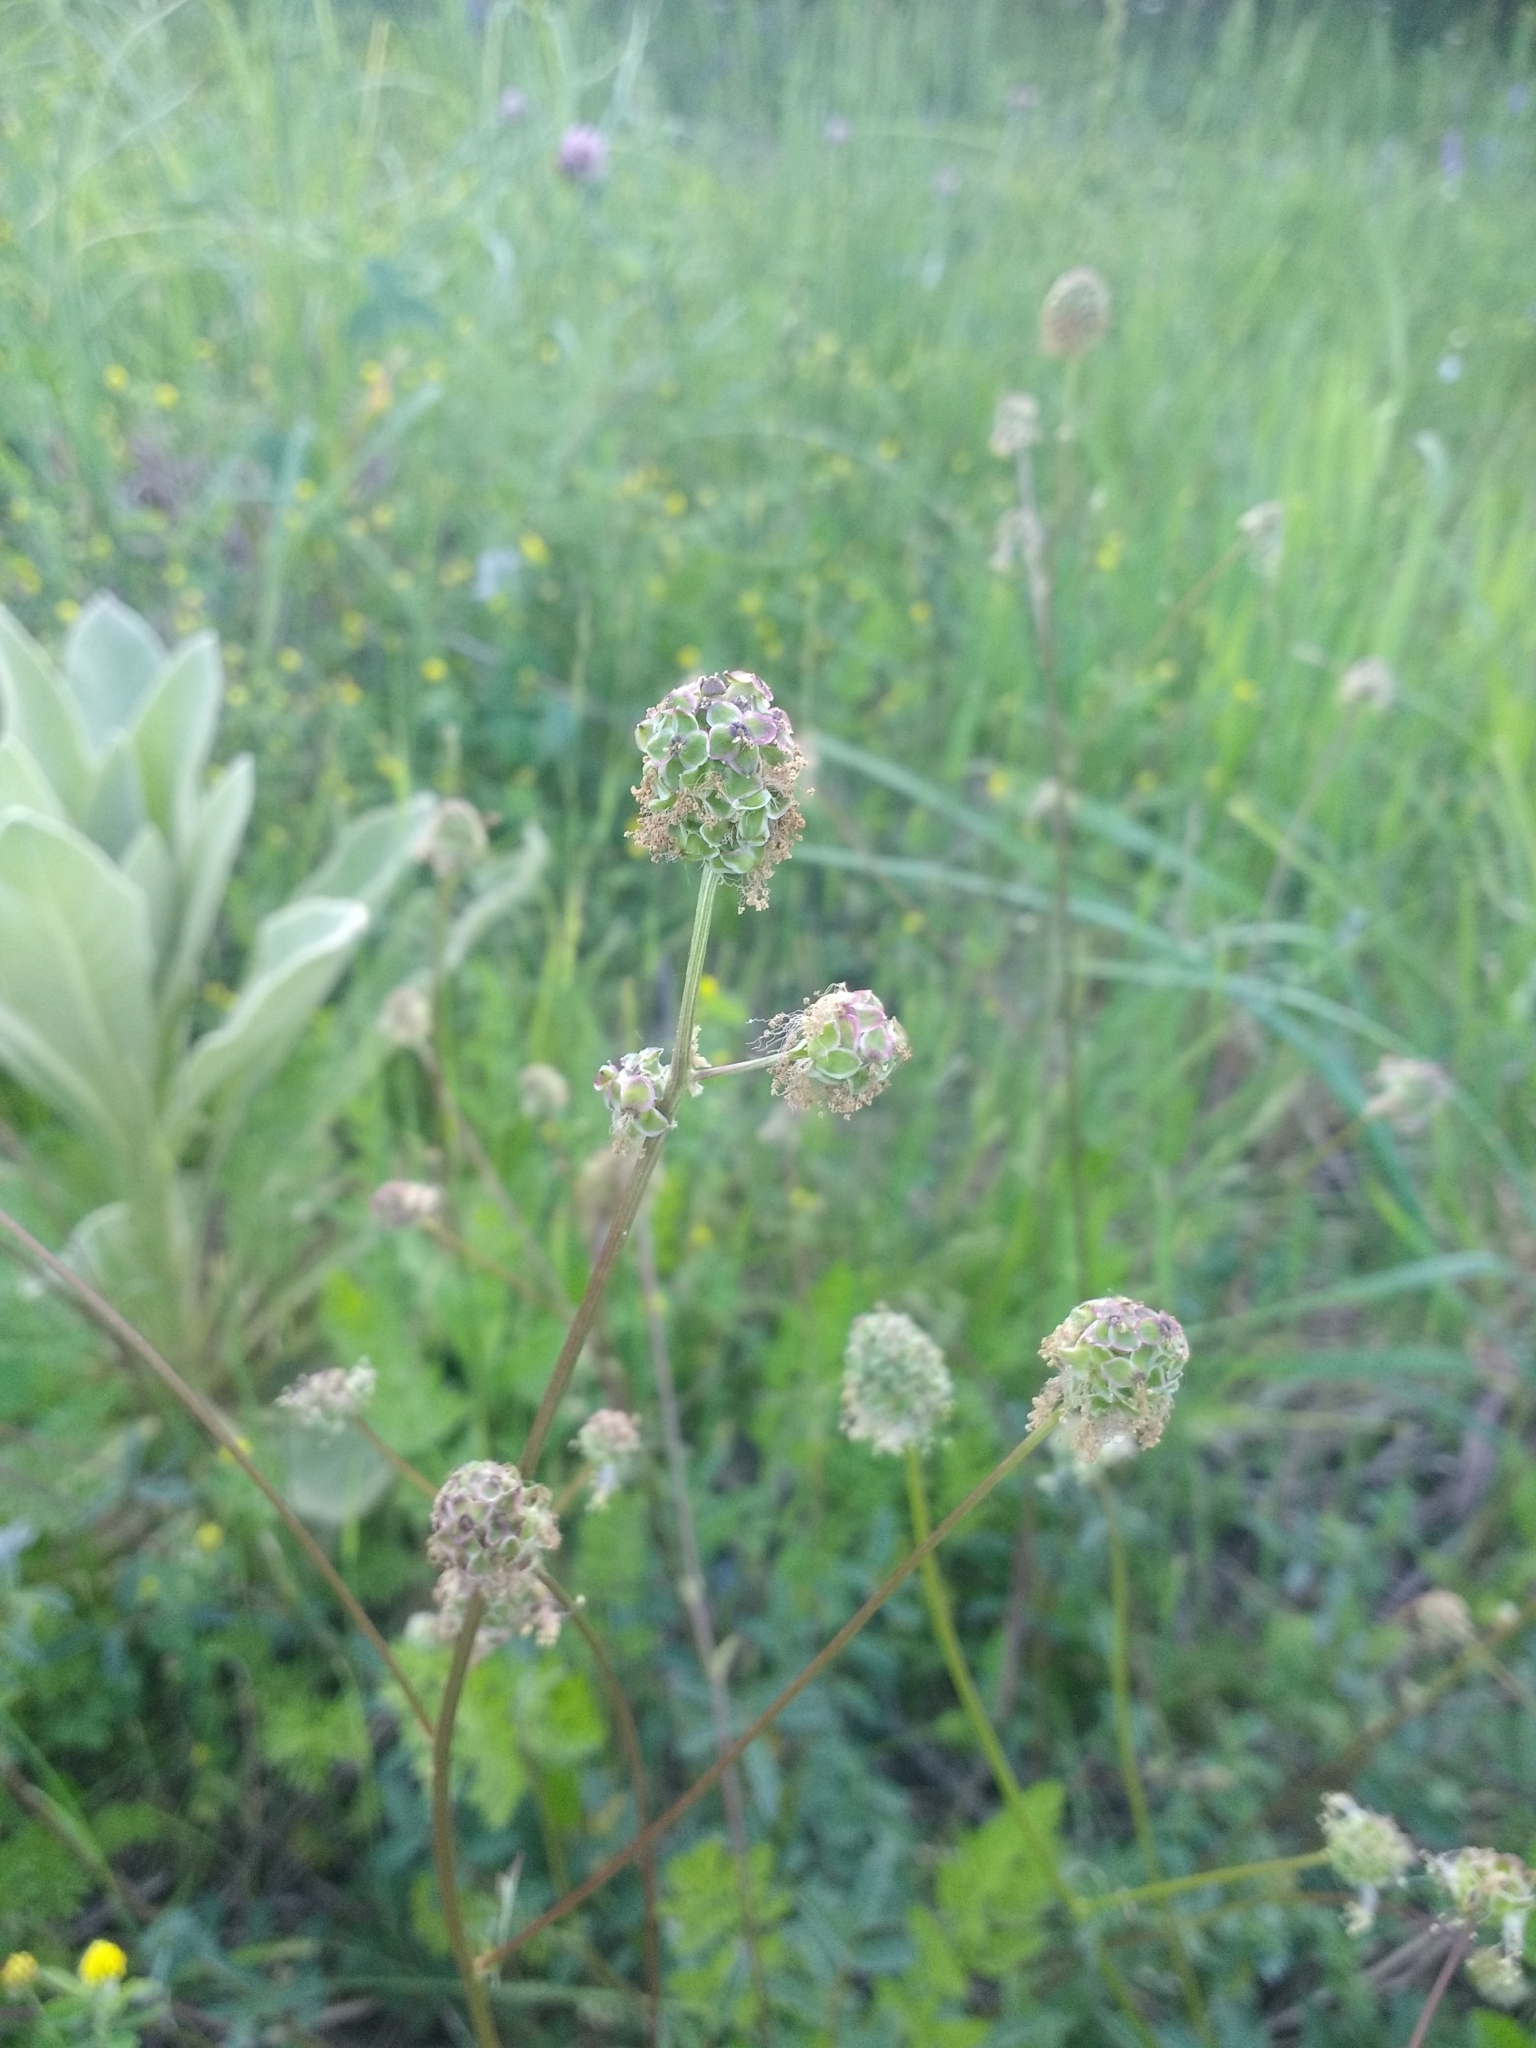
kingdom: Plantae
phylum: Tracheophyta
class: Magnoliopsida
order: Rosales
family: Rosaceae
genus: Poterium
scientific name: Poterium sanguisorba
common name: Salad burnet
